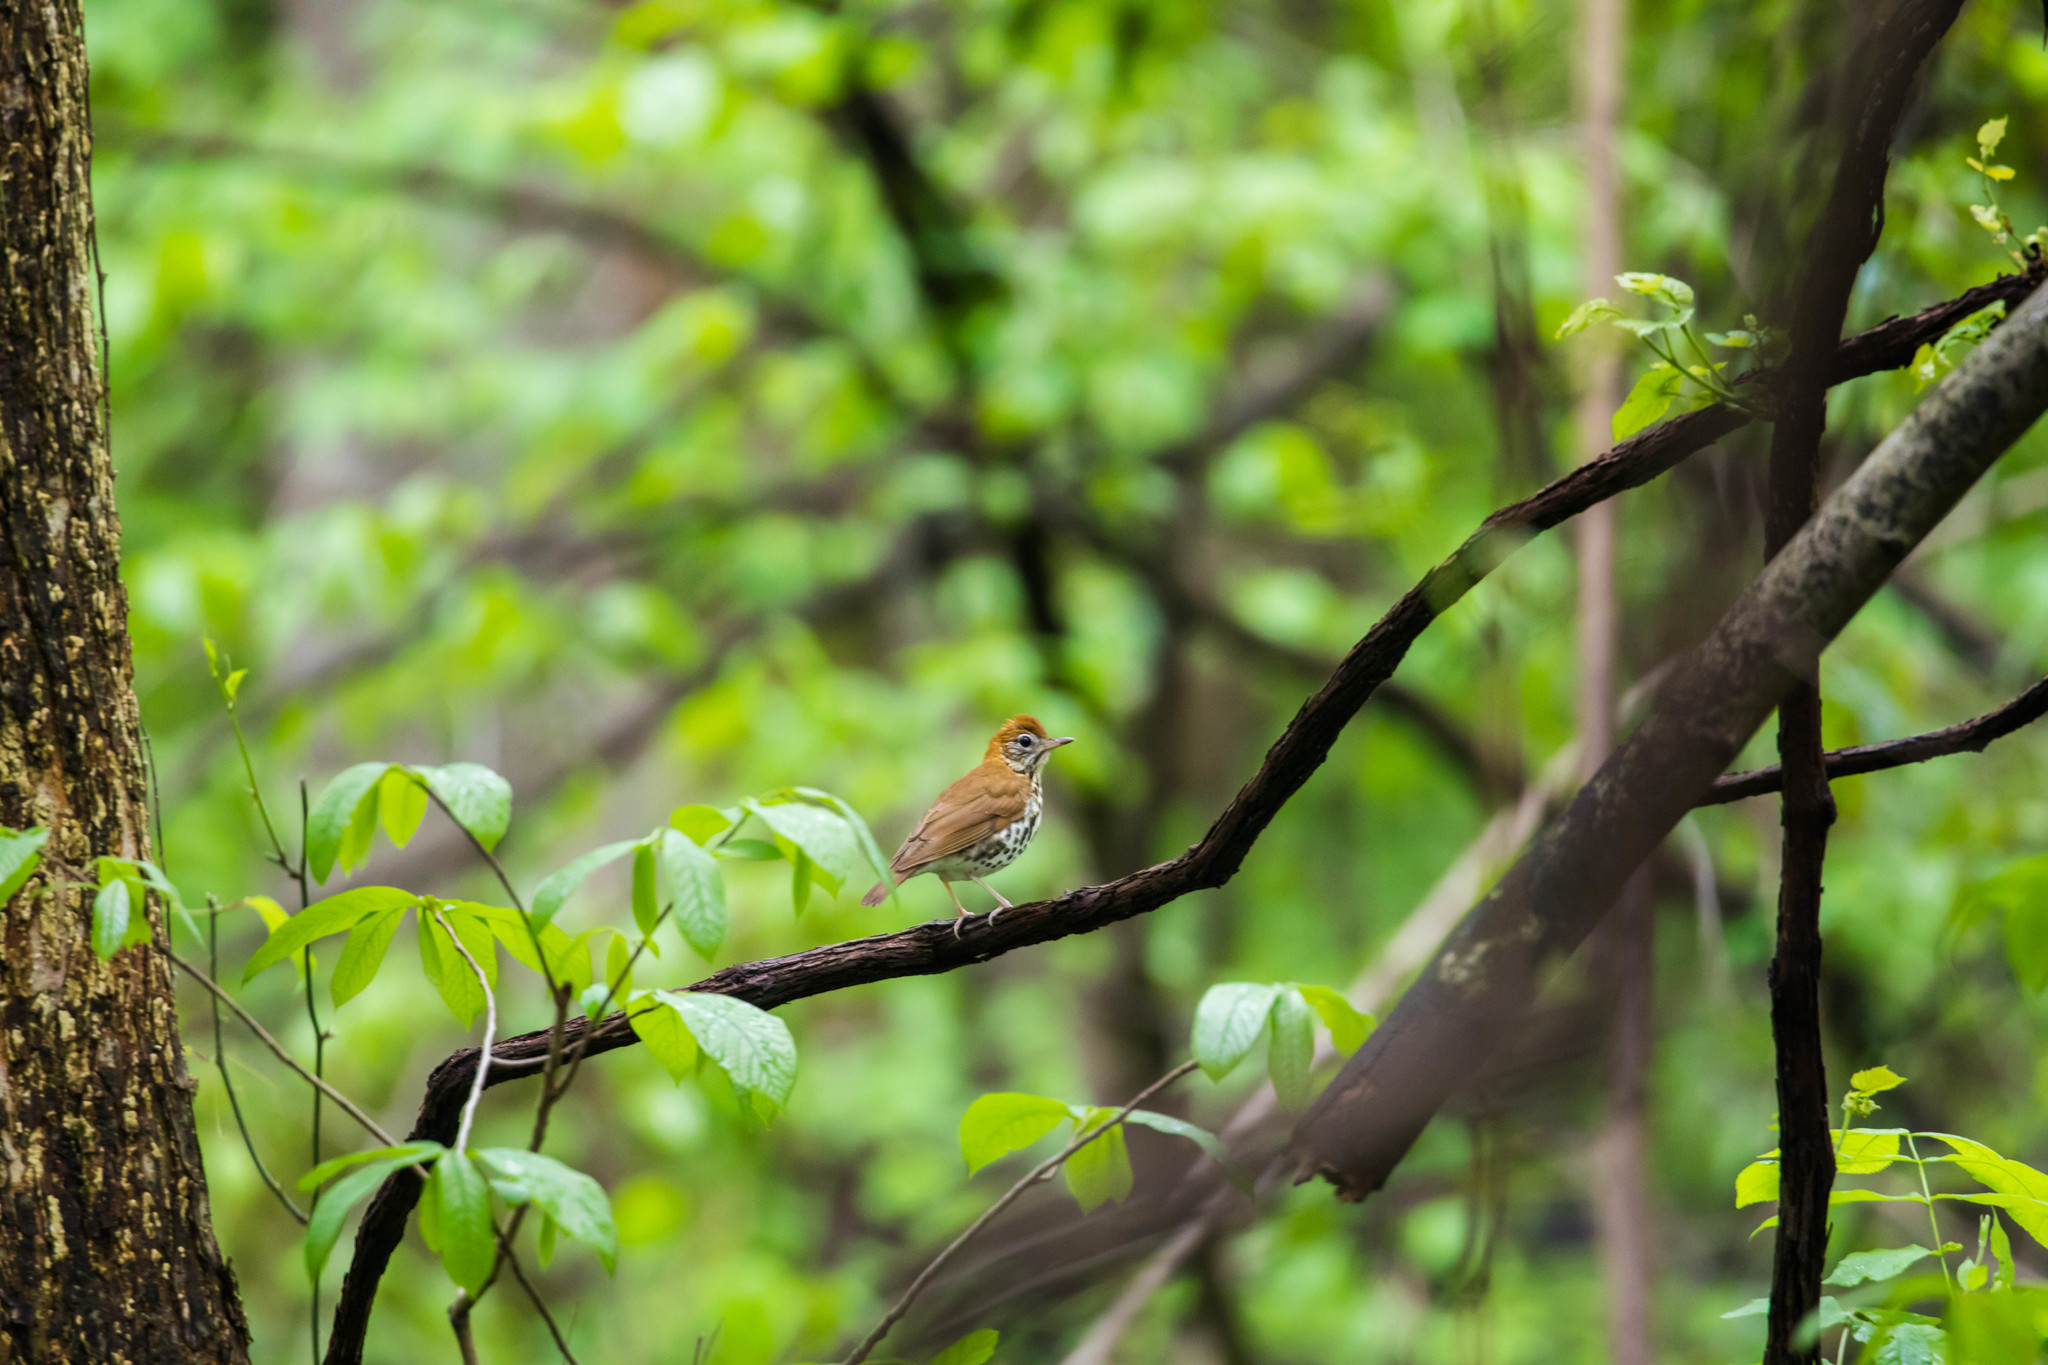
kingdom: Animalia
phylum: Chordata
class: Aves
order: Passeriformes
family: Turdidae
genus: Hylocichla
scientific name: Hylocichla mustelina
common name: Wood thrush
